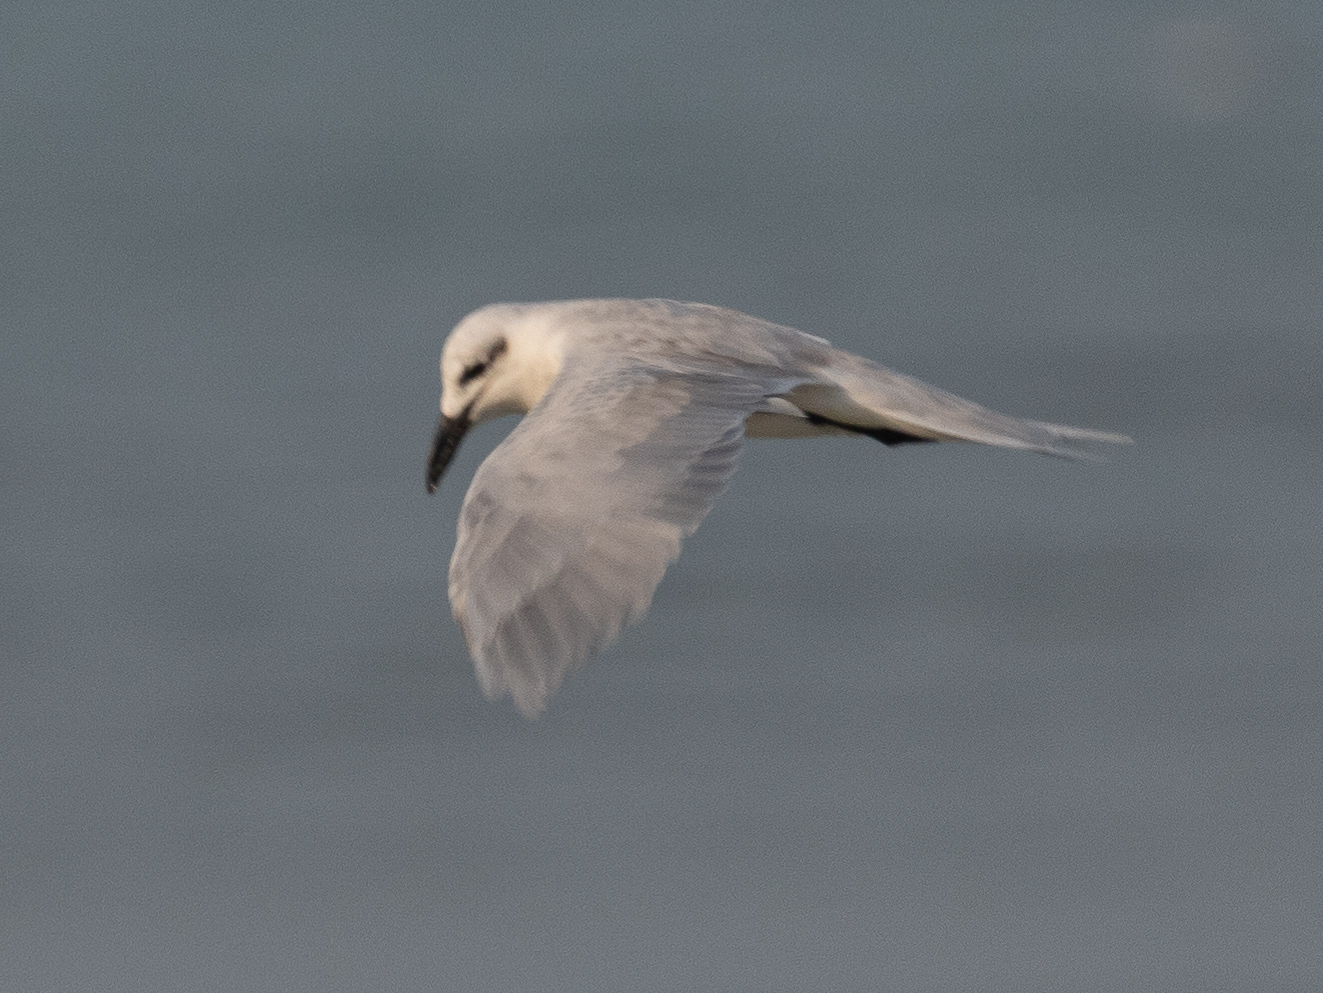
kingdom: Animalia
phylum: Chordata
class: Aves
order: Charadriiformes
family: Laridae
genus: Gelochelidon
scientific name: Gelochelidon nilotica
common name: Gull-billed tern
